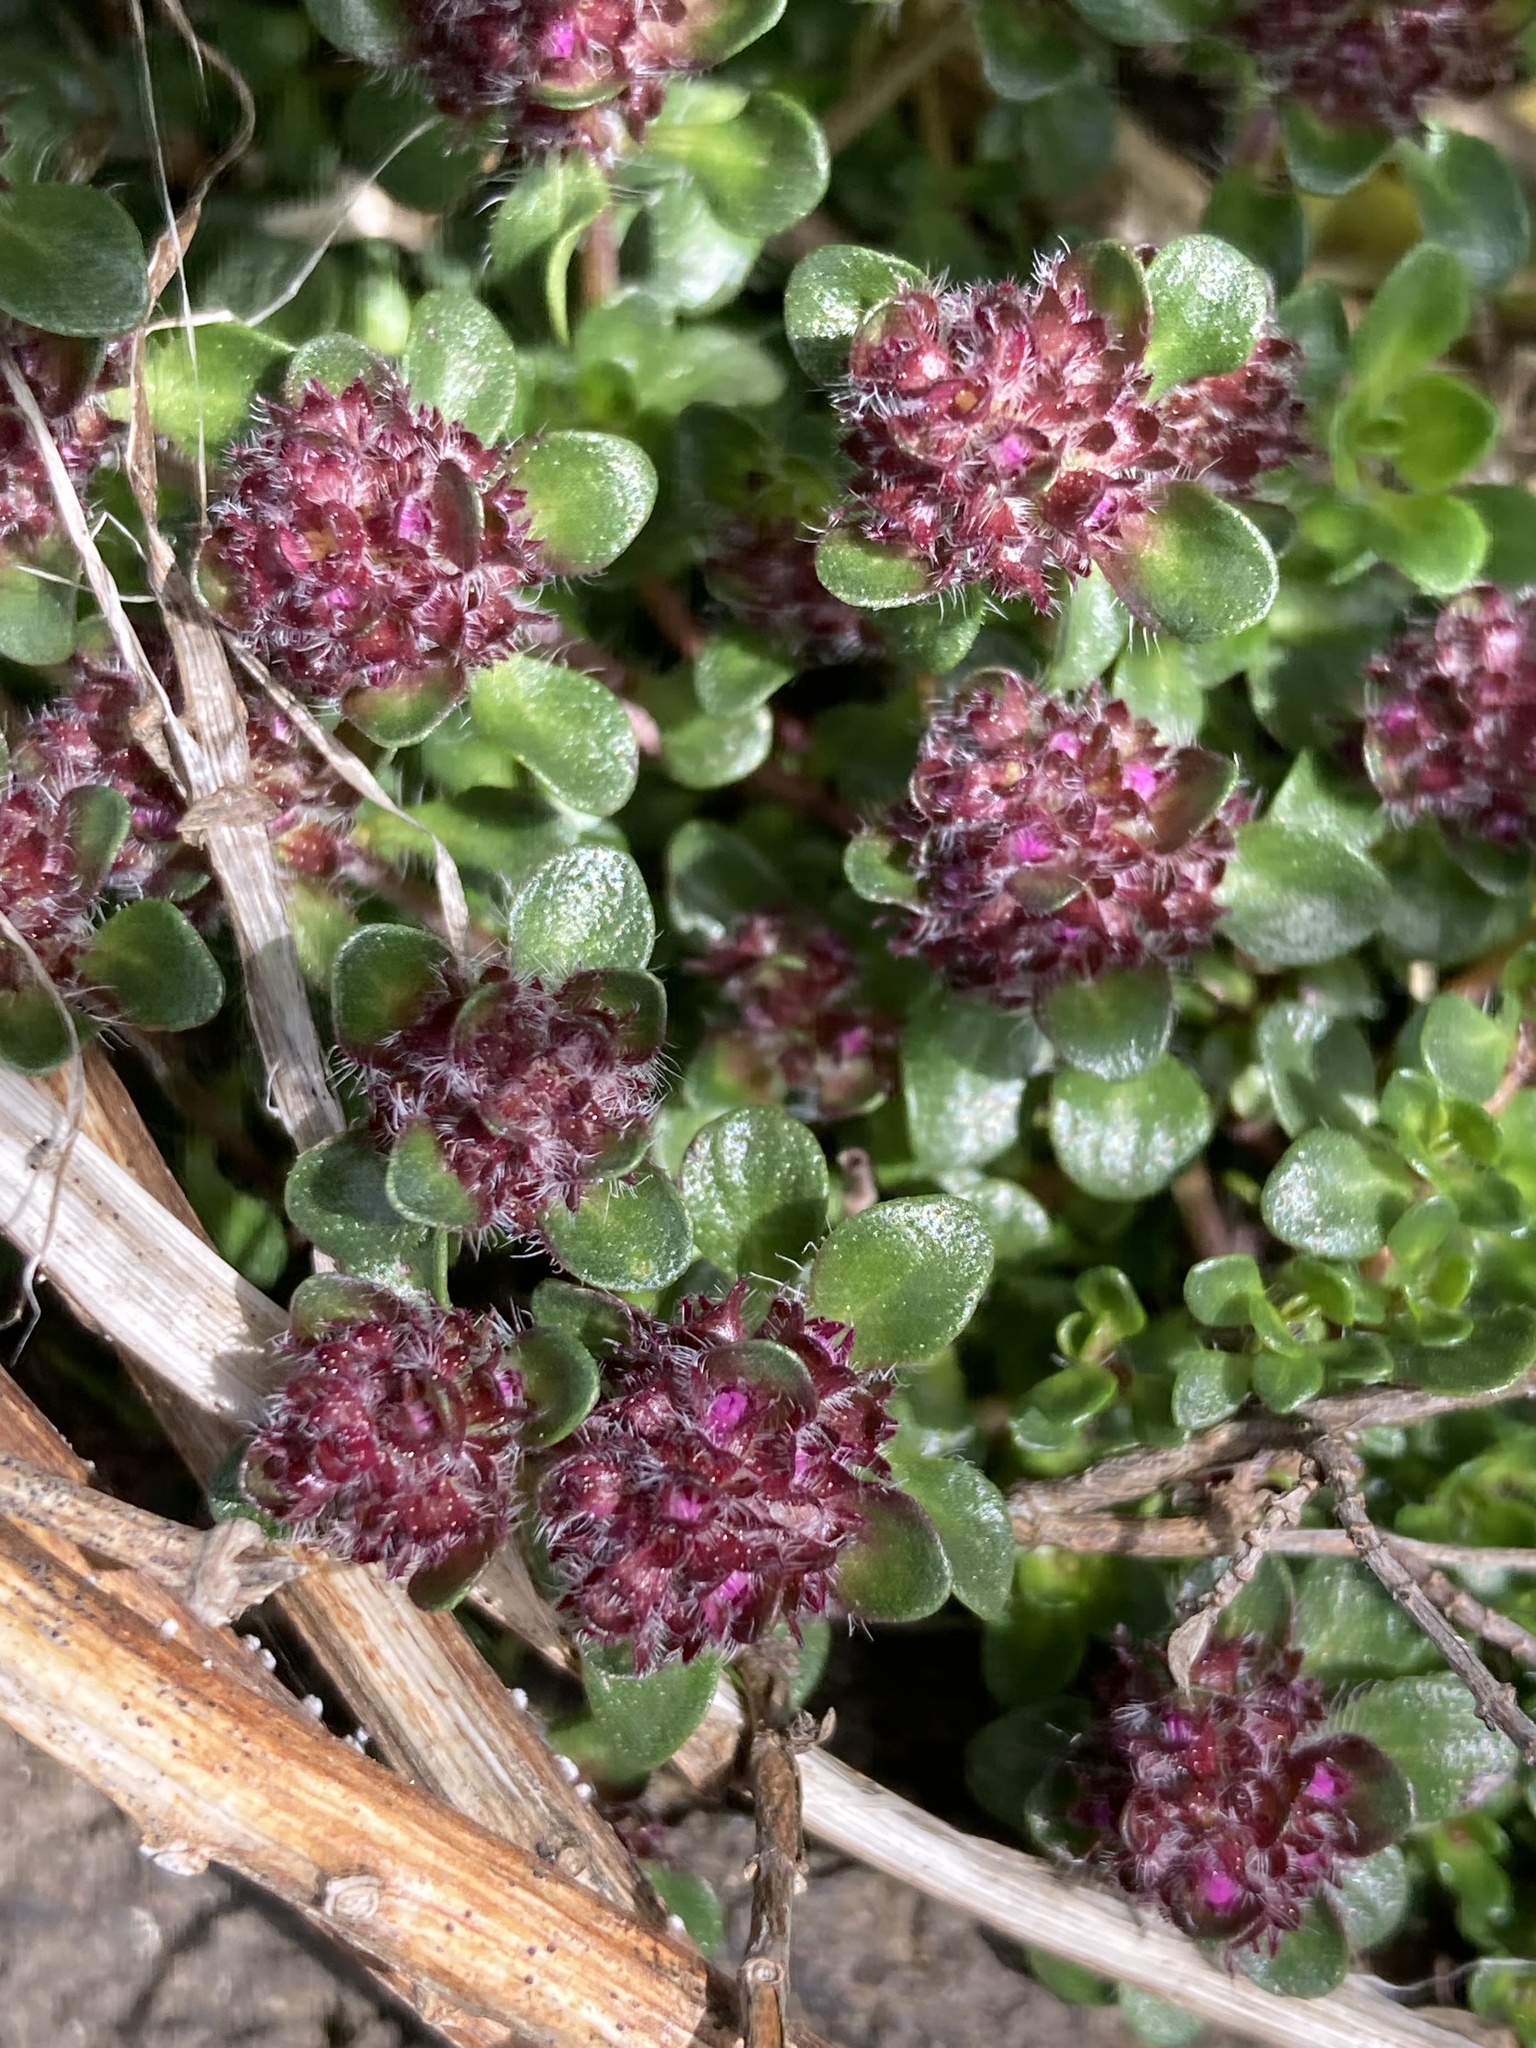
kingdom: Plantae
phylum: Tracheophyta
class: Magnoliopsida
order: Lamiales
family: Lamiaceae
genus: Thymus
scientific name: Thymus praecox
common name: Wild thyme
